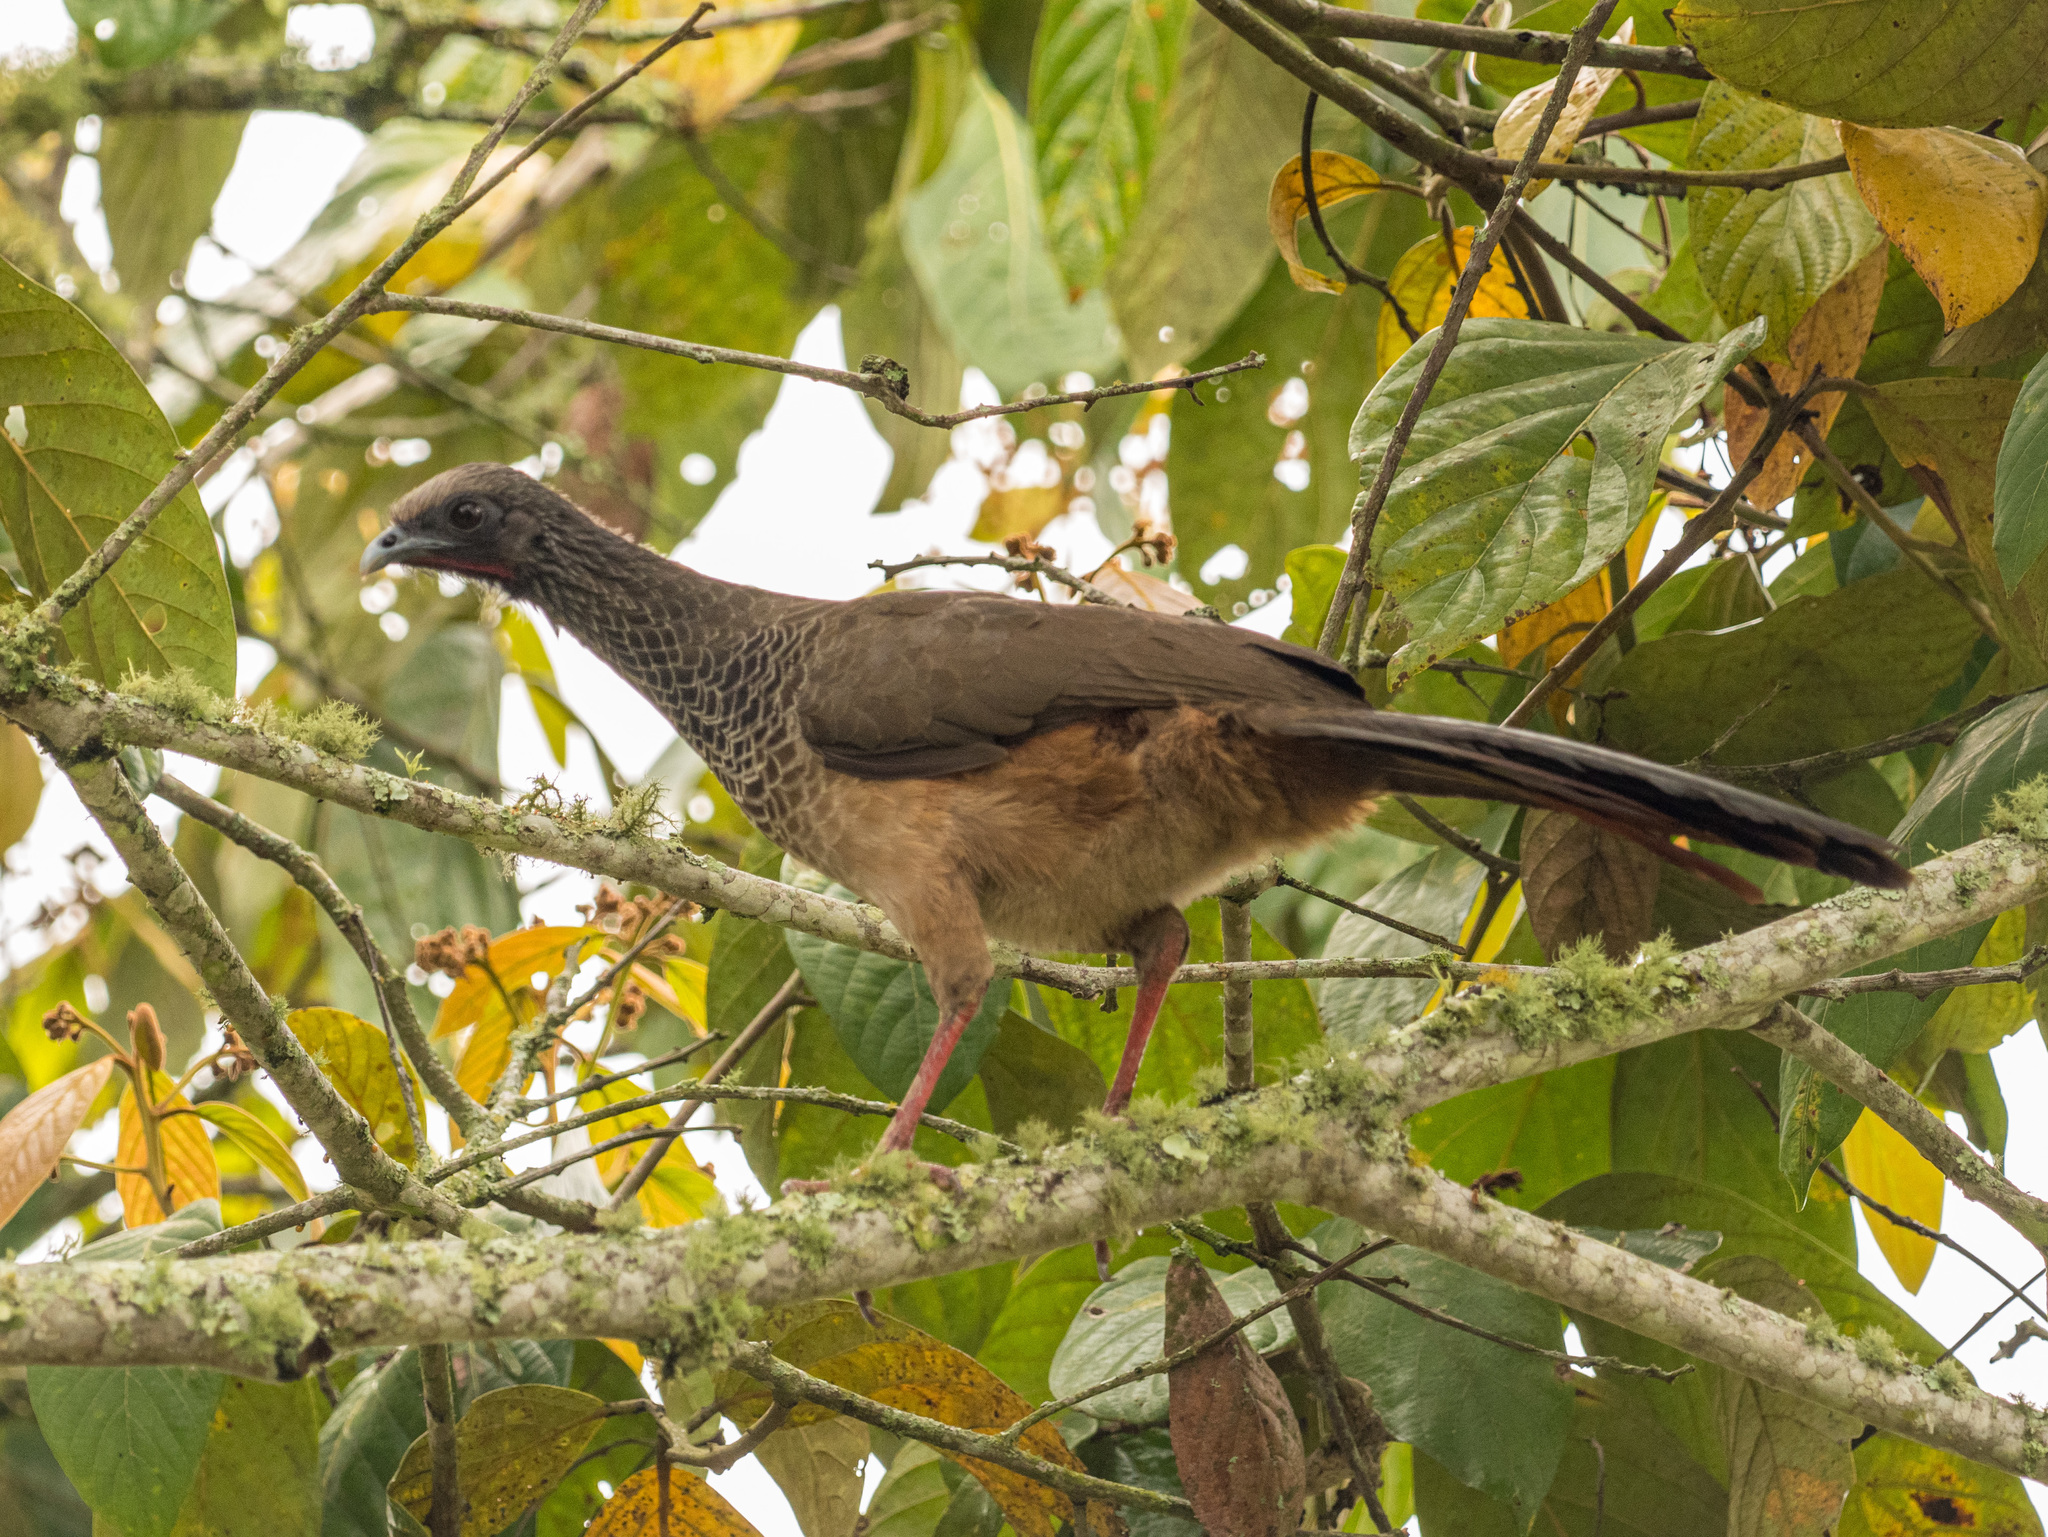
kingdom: Animalia
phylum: Chordata
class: Aves
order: Galliformes
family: Cracidae
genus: Ortalis
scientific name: Ortalis columbiana
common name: Colombian chachalaca
